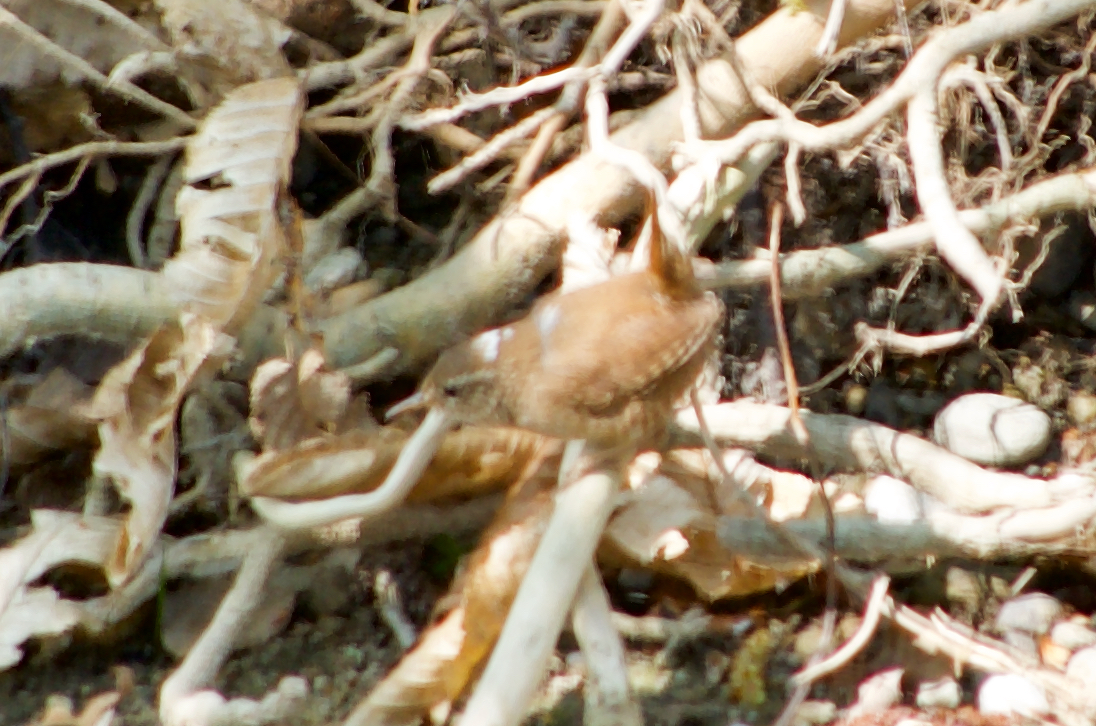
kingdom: Animalia
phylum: Chordata
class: Aves
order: Passeriformes
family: Troglodytidae
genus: Troglodytes
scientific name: Troglodytes troglodytes
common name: Eurasian wren
